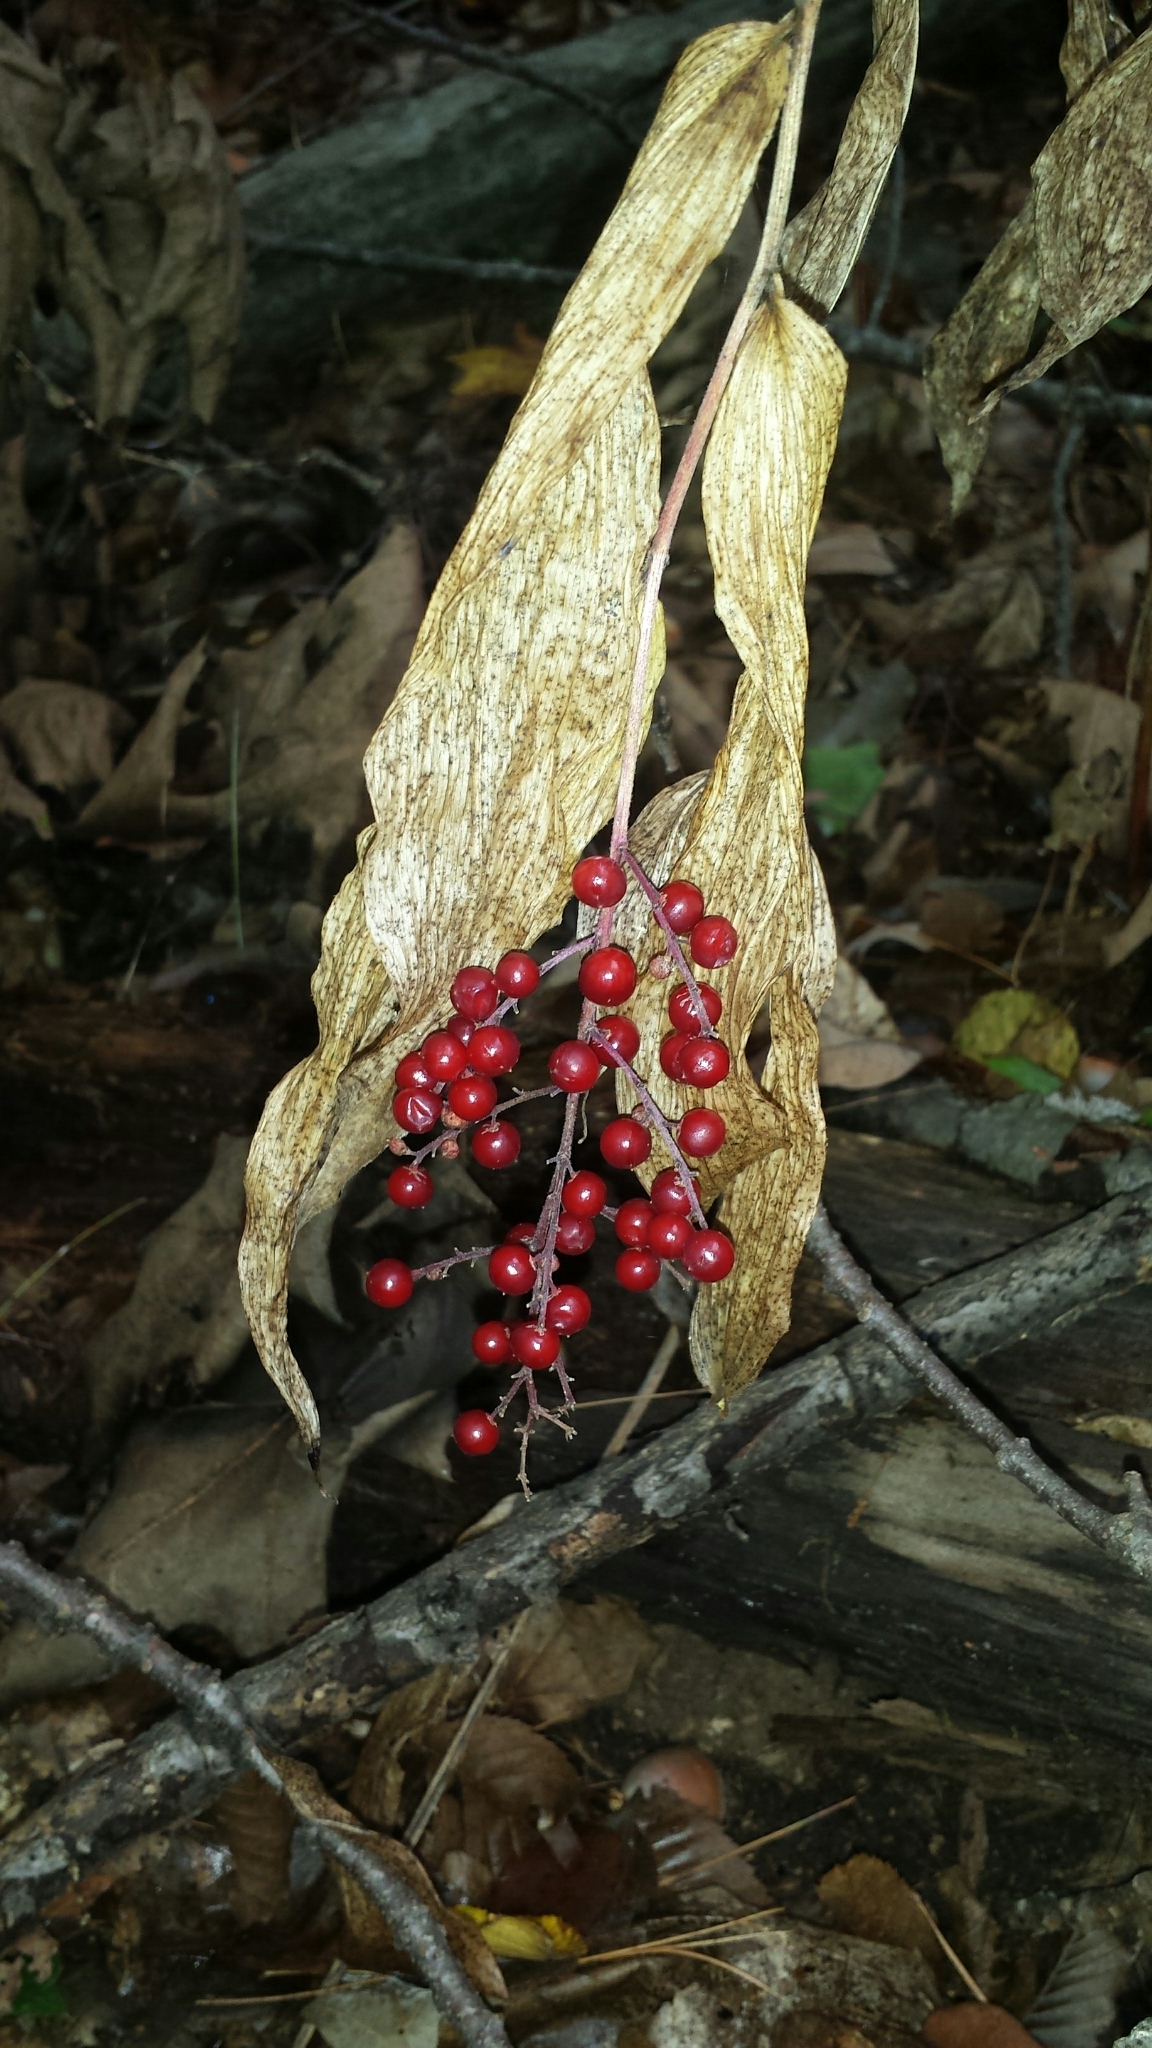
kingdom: Plantae
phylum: Tracheophyta
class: Liliopsida
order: Asparagales
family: Asparagaceae
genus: Maianthemum
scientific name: Maianthemum racemosum
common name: False spikenard
